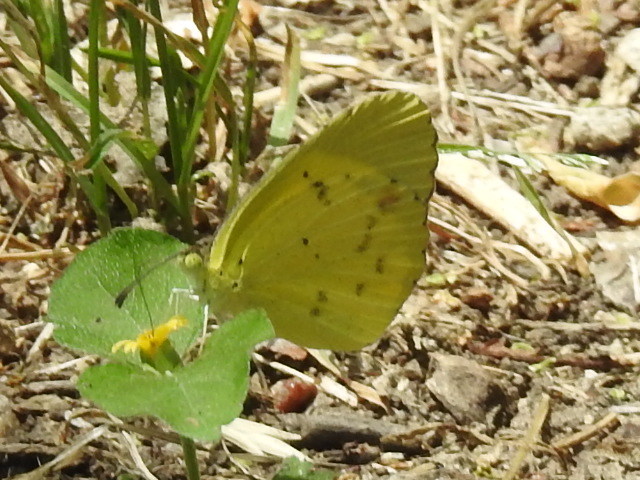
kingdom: Animalia
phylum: Arthropoda
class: Insecta
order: Lepidoptera
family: Pieridae
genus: Pyrisitia
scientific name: Pyrisitia lisa
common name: Little yellow
